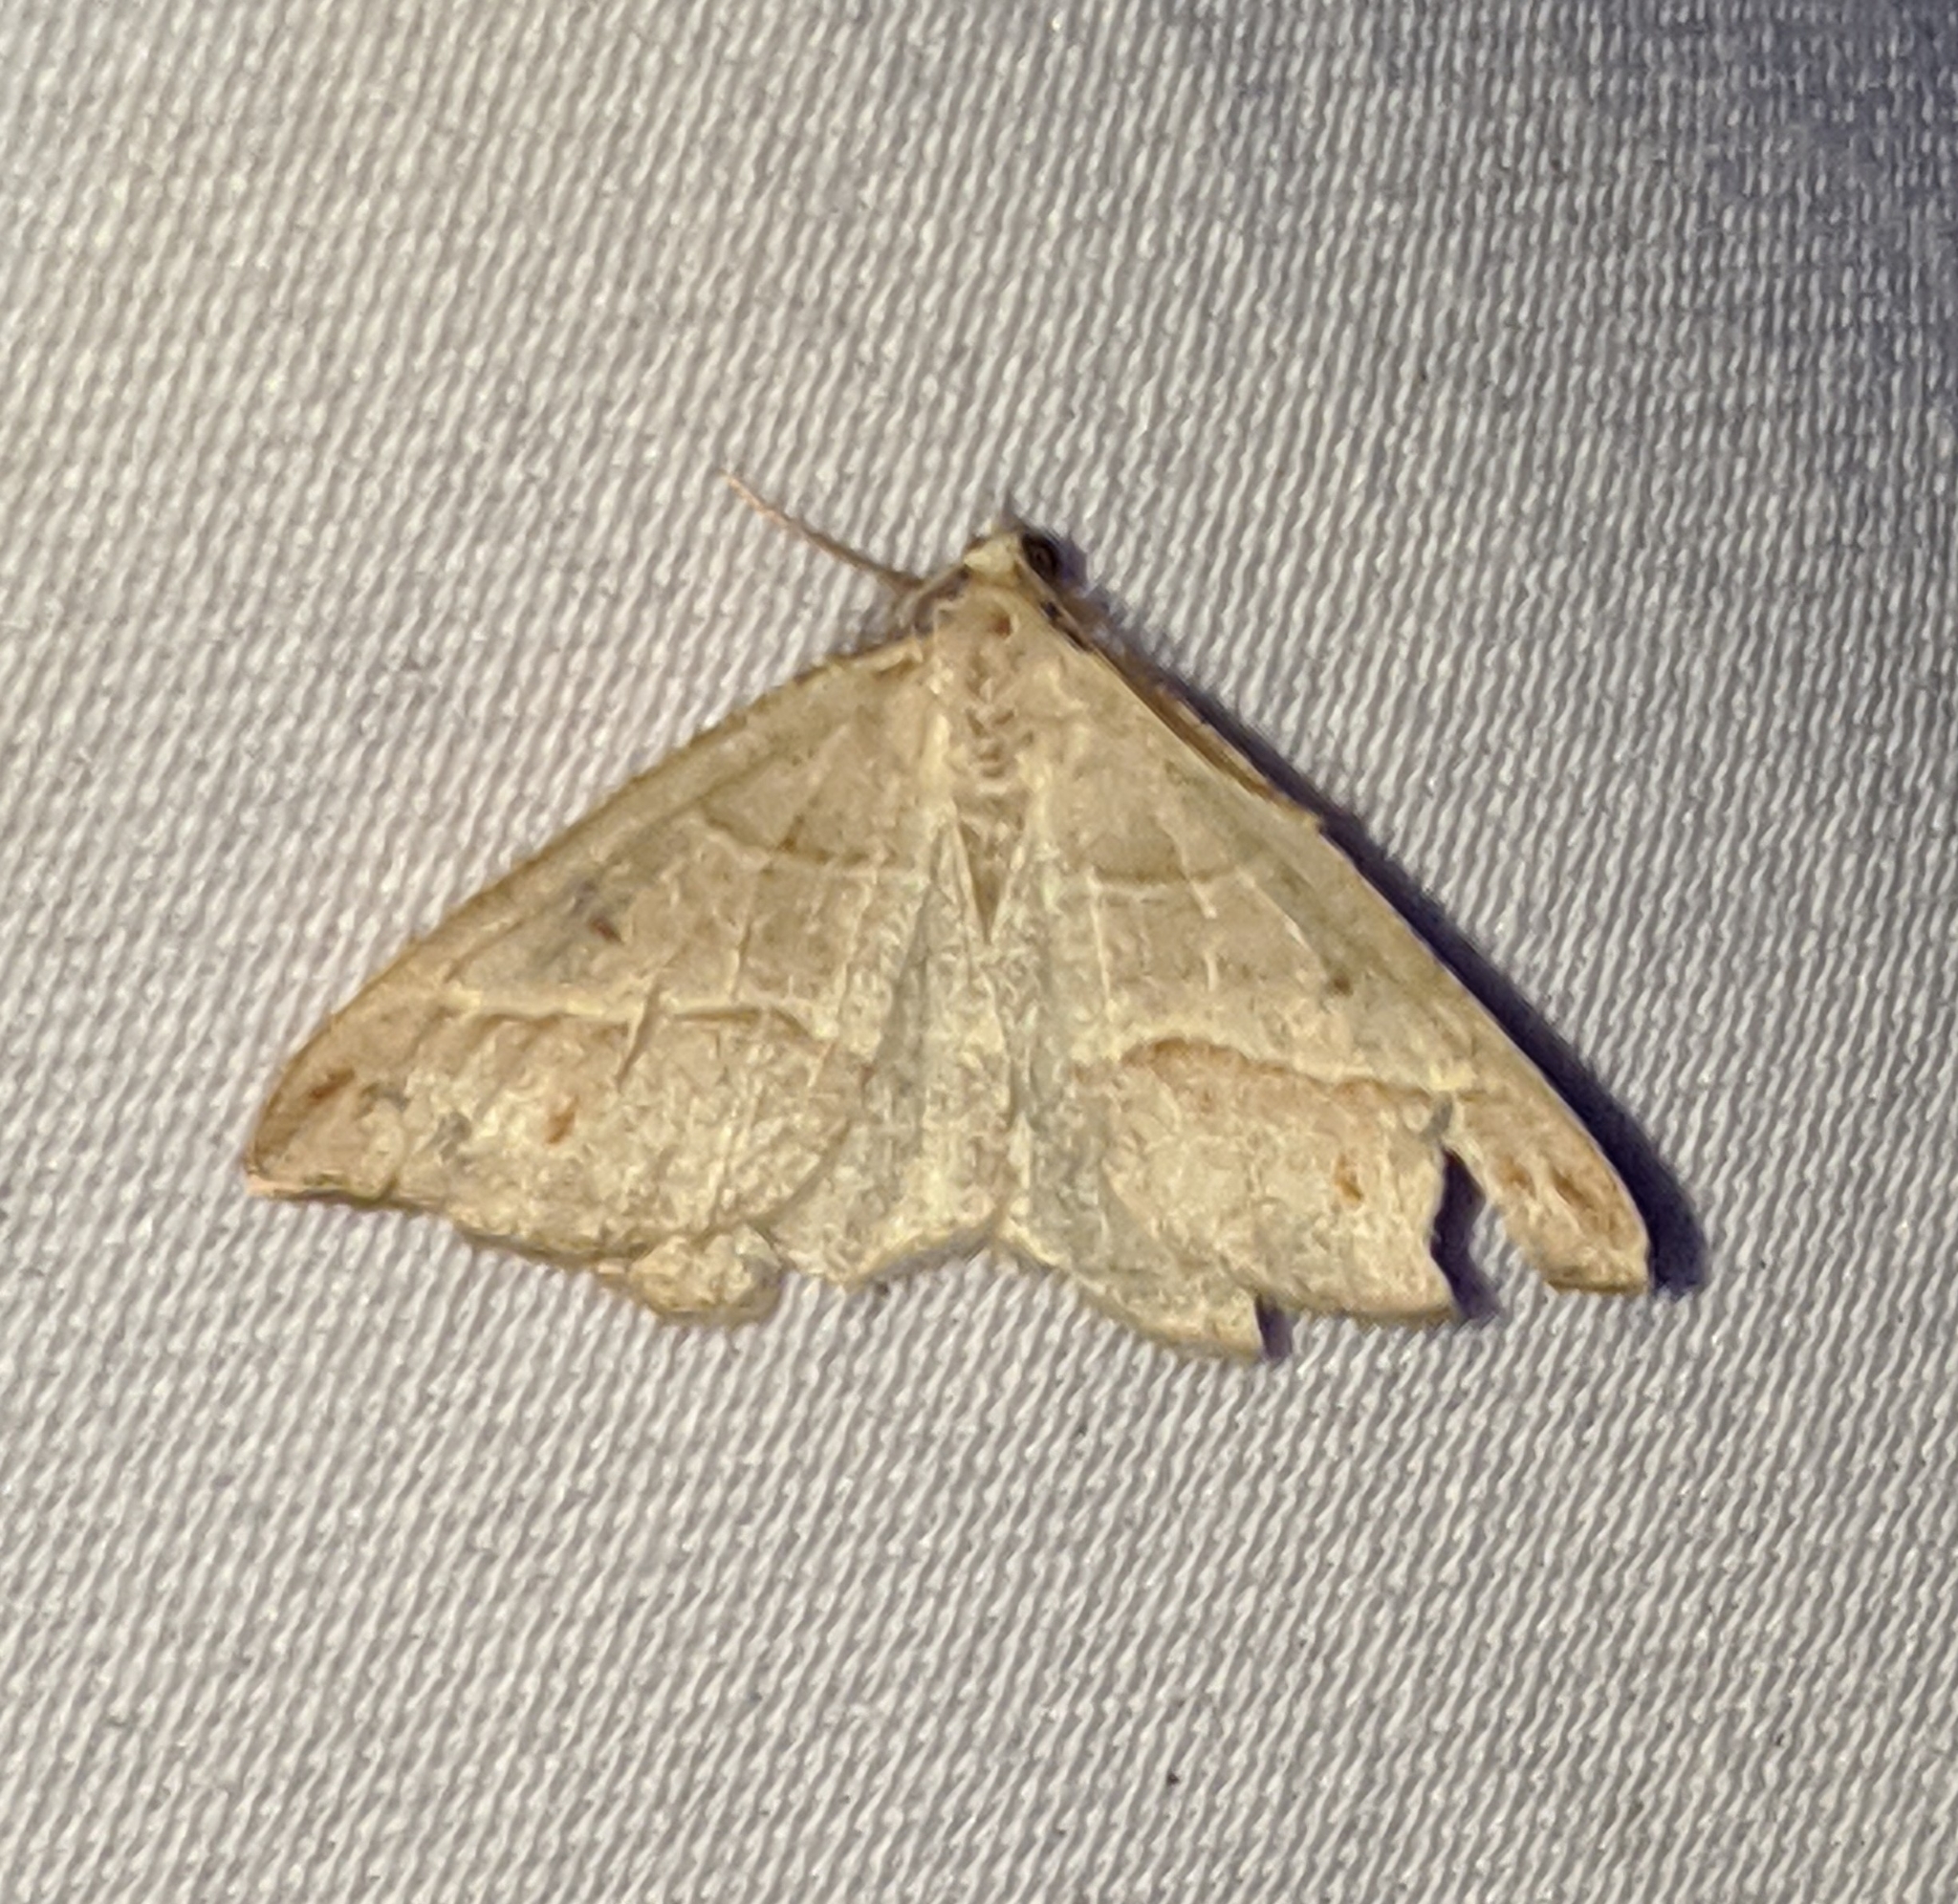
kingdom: Animalia
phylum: Arthropoda
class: Insecta
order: Lepidoptera
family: Geometridae
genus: Macaria
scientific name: Macaria lorquinaria
